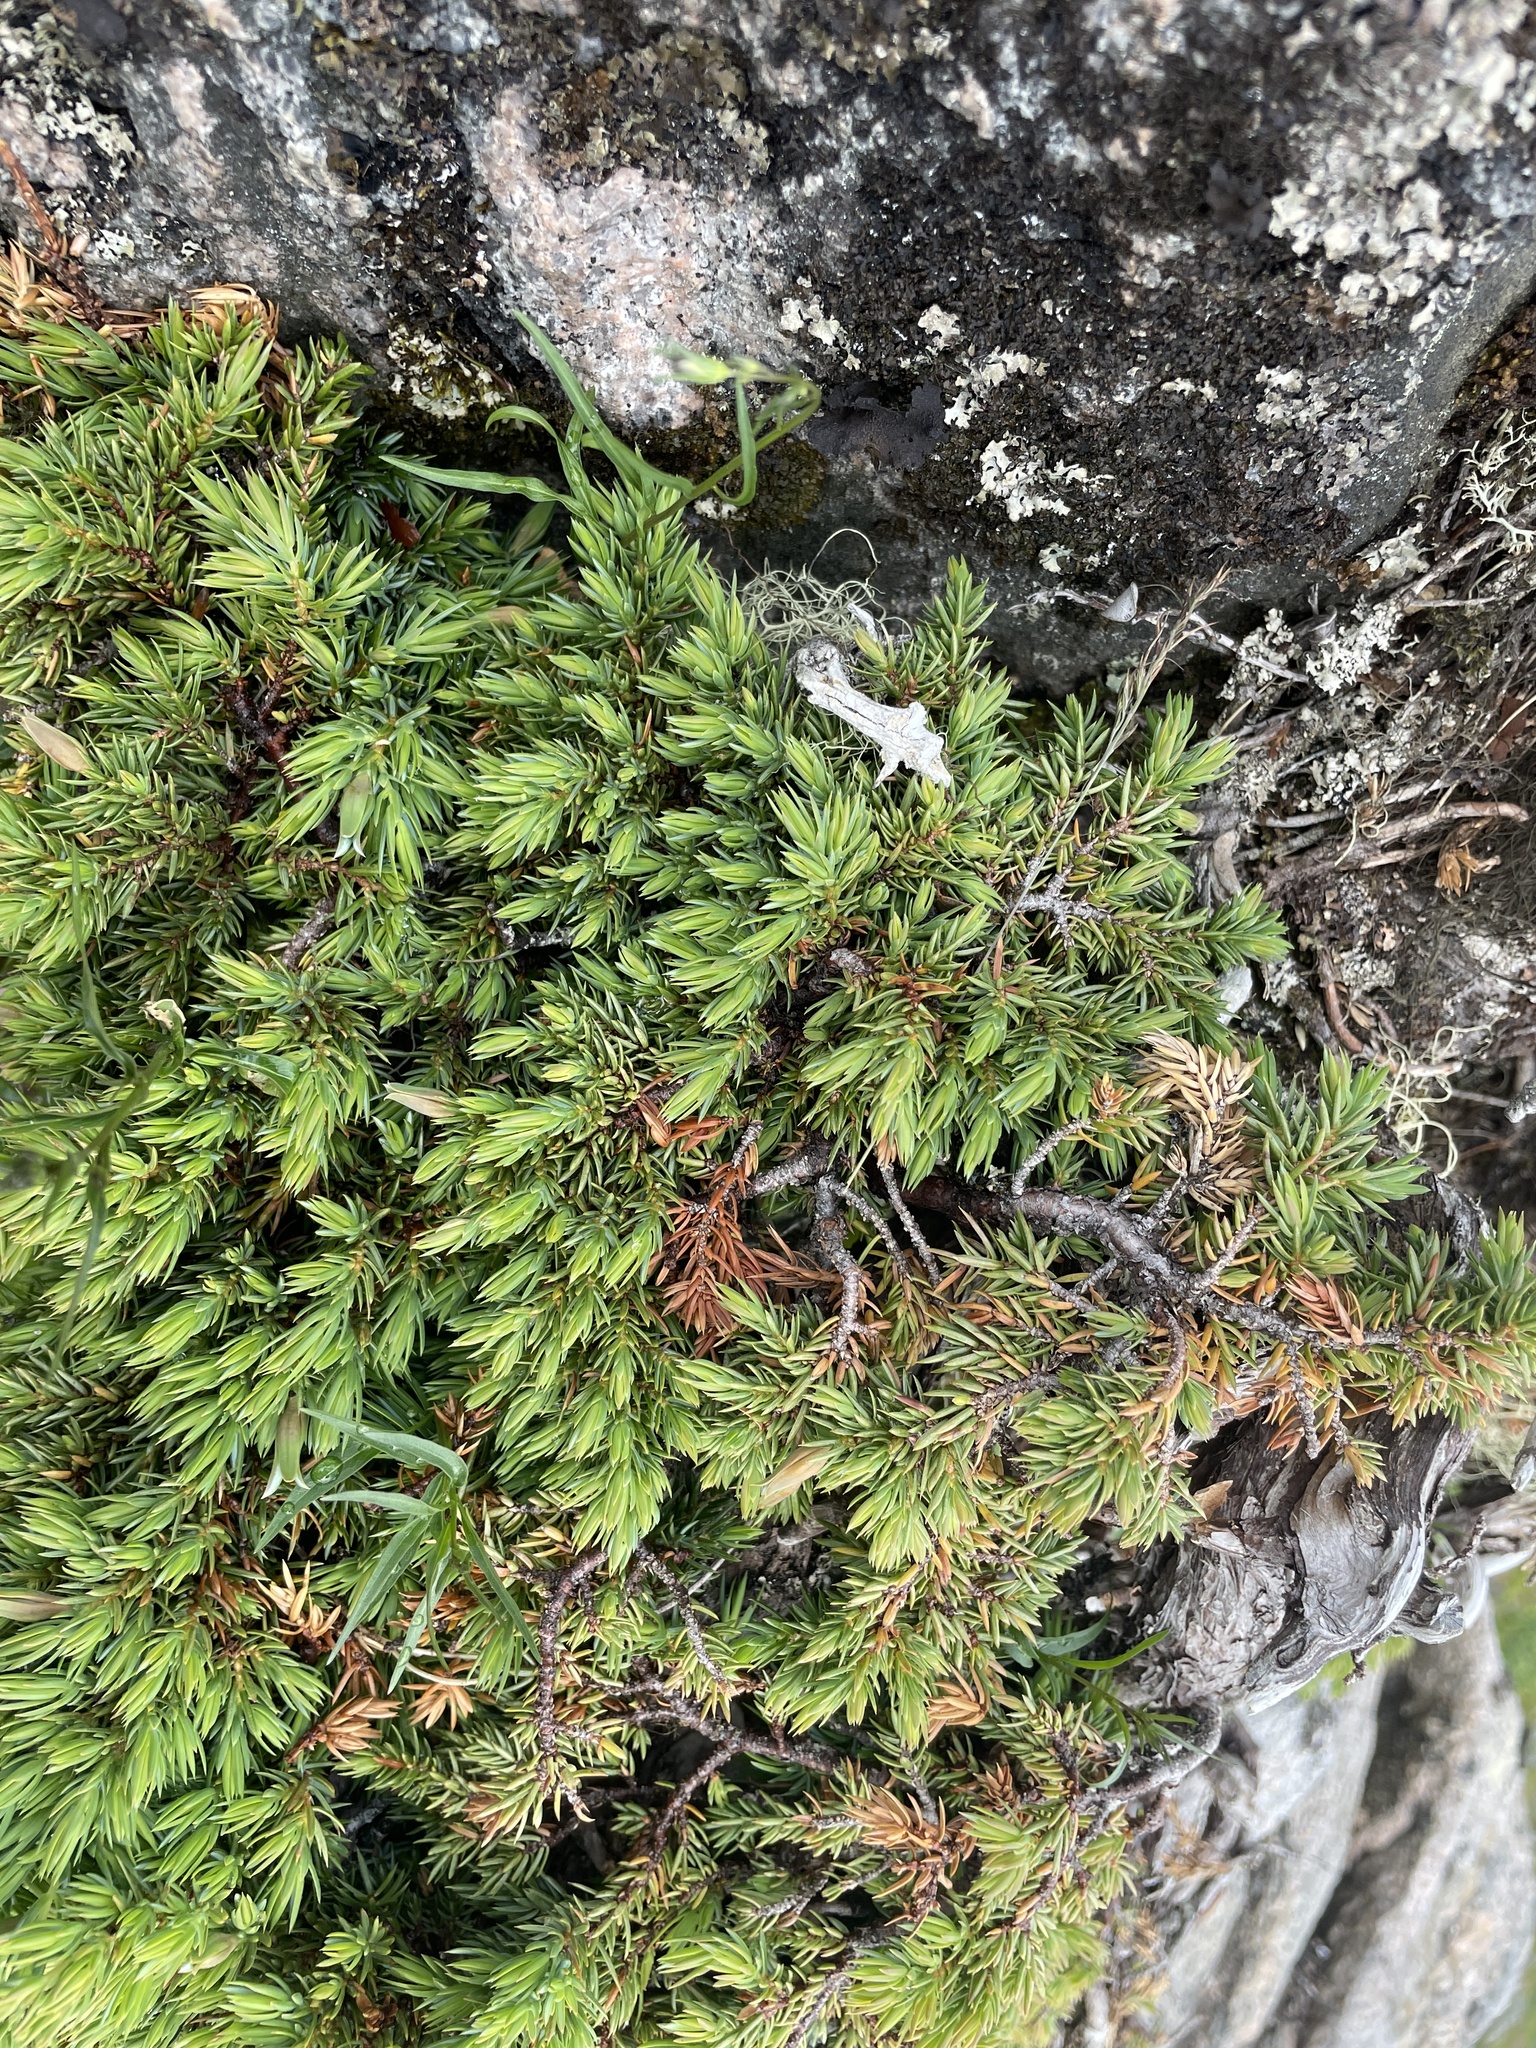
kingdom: Plantae
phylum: Tracheophyta
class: Pinopsida
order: Pinales
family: Cupressaceae
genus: Juniperus
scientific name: Juniperus communis
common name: Common juniper
